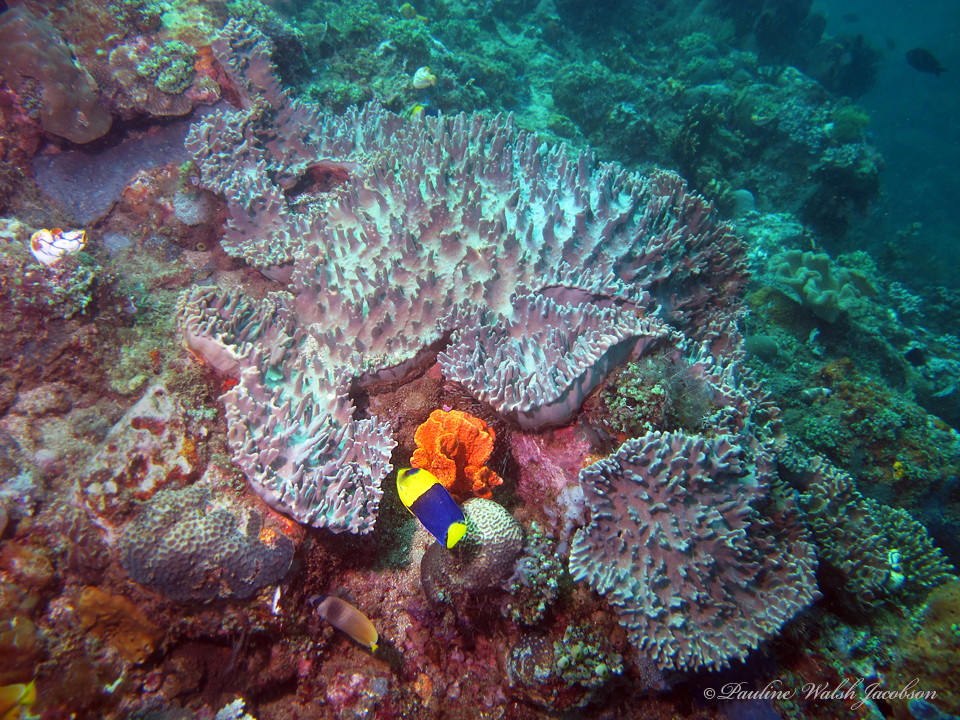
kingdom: Animalia
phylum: Chordata
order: Perciformes
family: Pomacanthidae
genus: Centropyge
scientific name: Centropyge bicolor
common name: Bicolor angelfish
